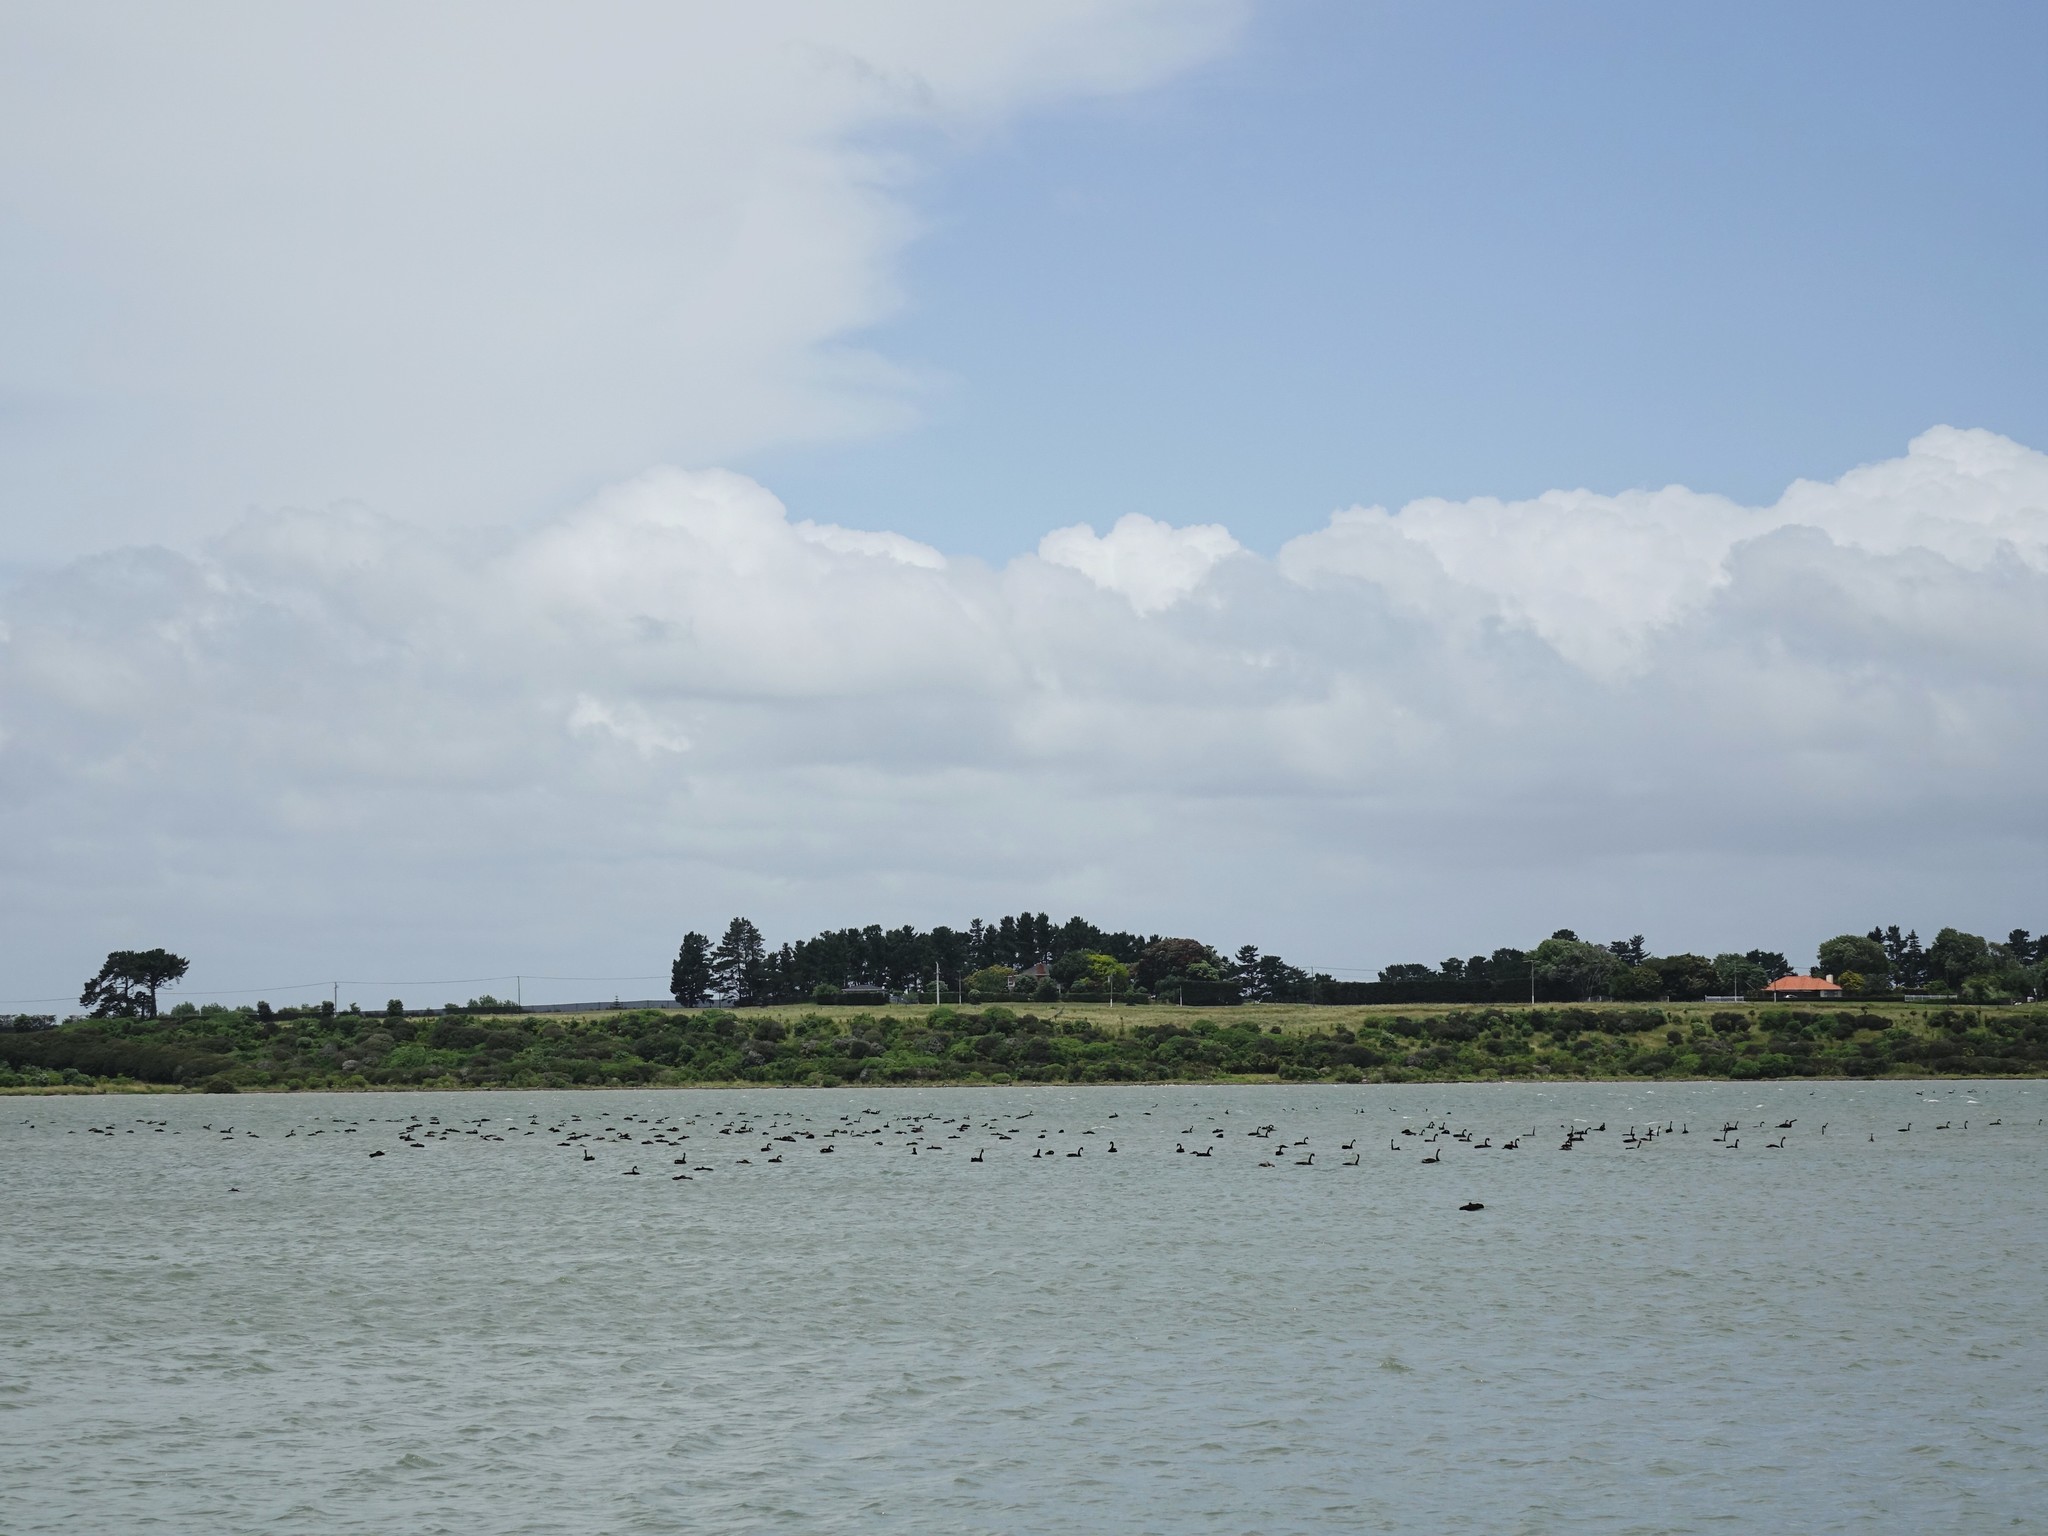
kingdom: Animalia
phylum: Chordata
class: Aves
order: Anseriformes
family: Anatidae
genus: Cygnus
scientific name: Cygnus atratus
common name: Black swan
